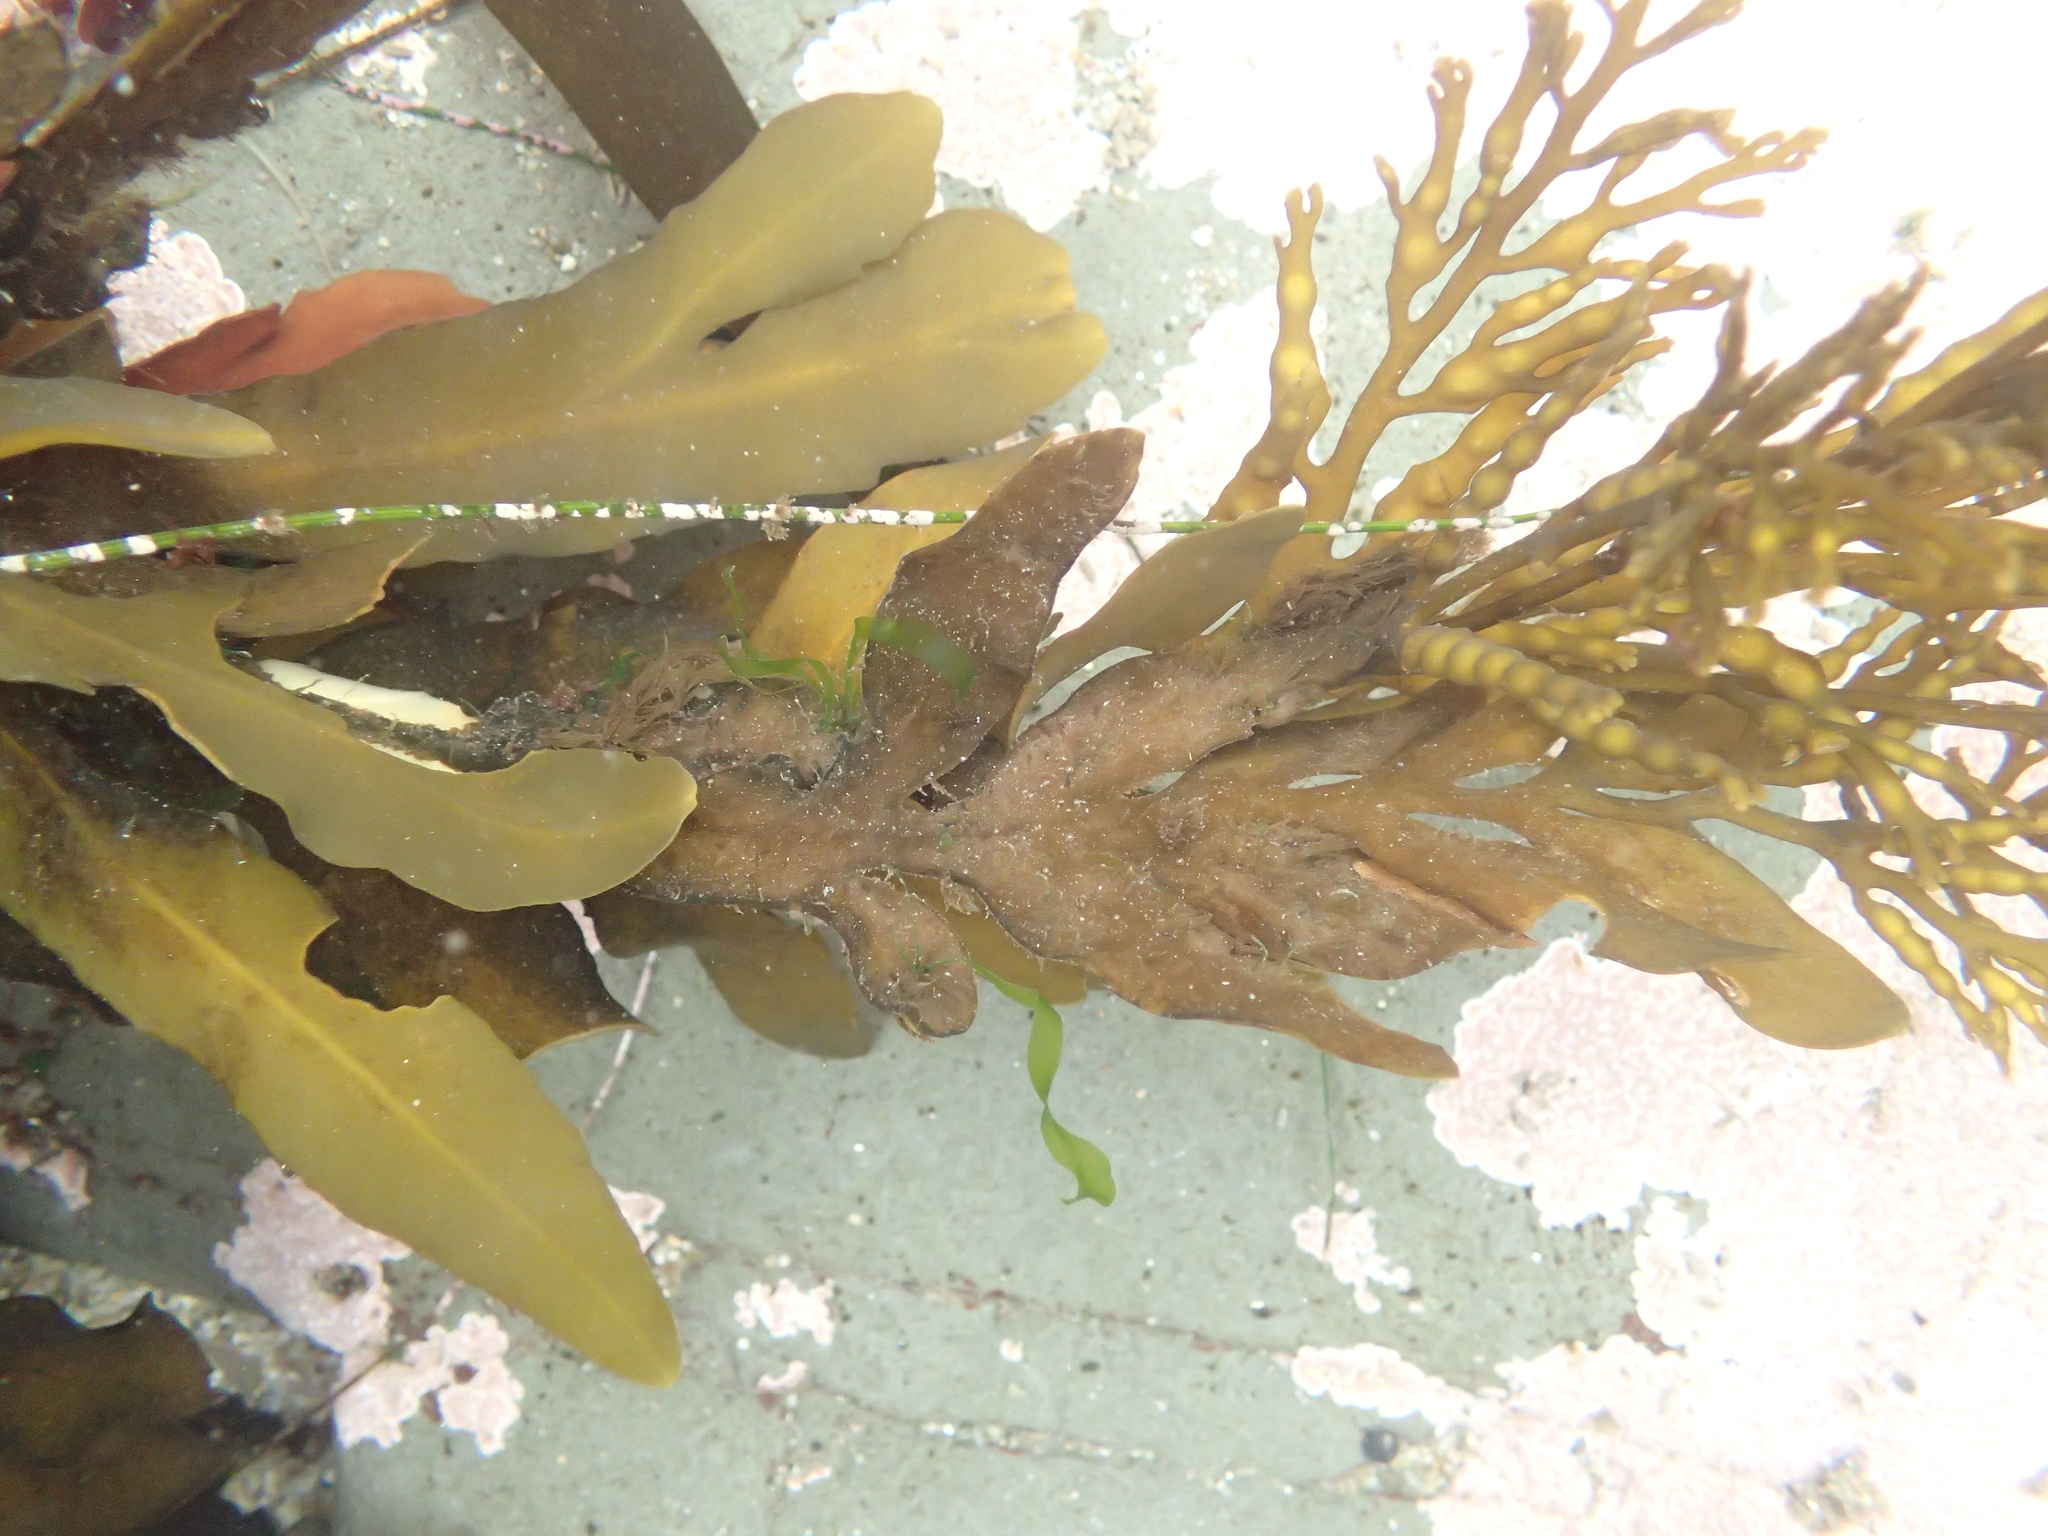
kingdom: Chromista
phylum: Ochrophyta
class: Phaeophyceae
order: Fucales
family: Sargassaceae
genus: Stephanocystis
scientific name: Stephanocystis
